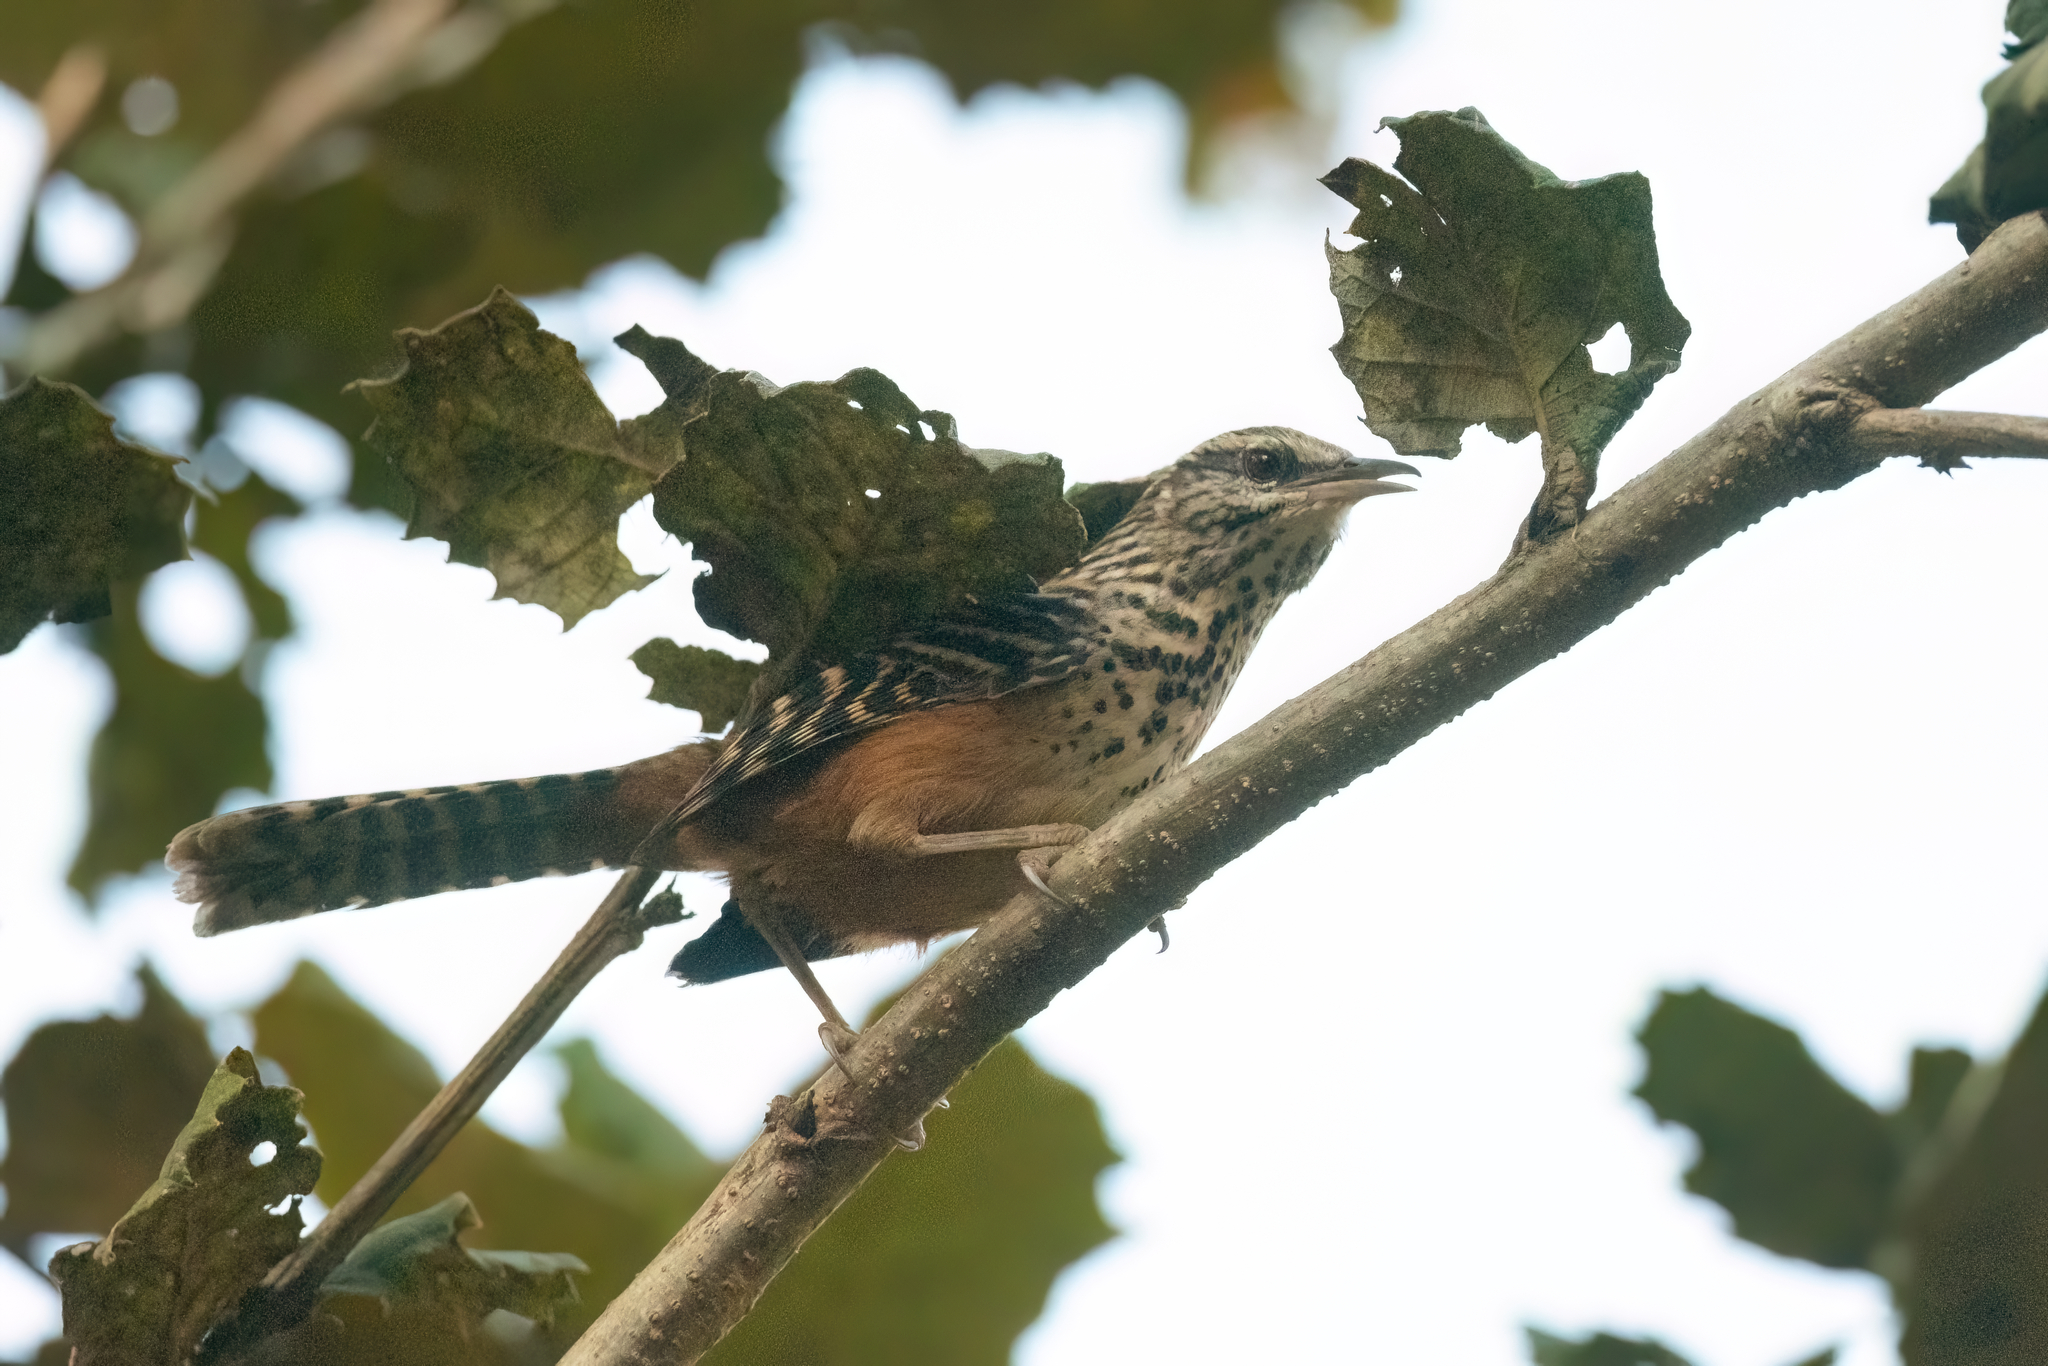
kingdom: Animalia
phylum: Chordata
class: Aves
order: Passeriformes
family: Troglodytidae
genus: Campylorhynchus
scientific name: Campylorhynchus zonatus
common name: Band-backed wren
